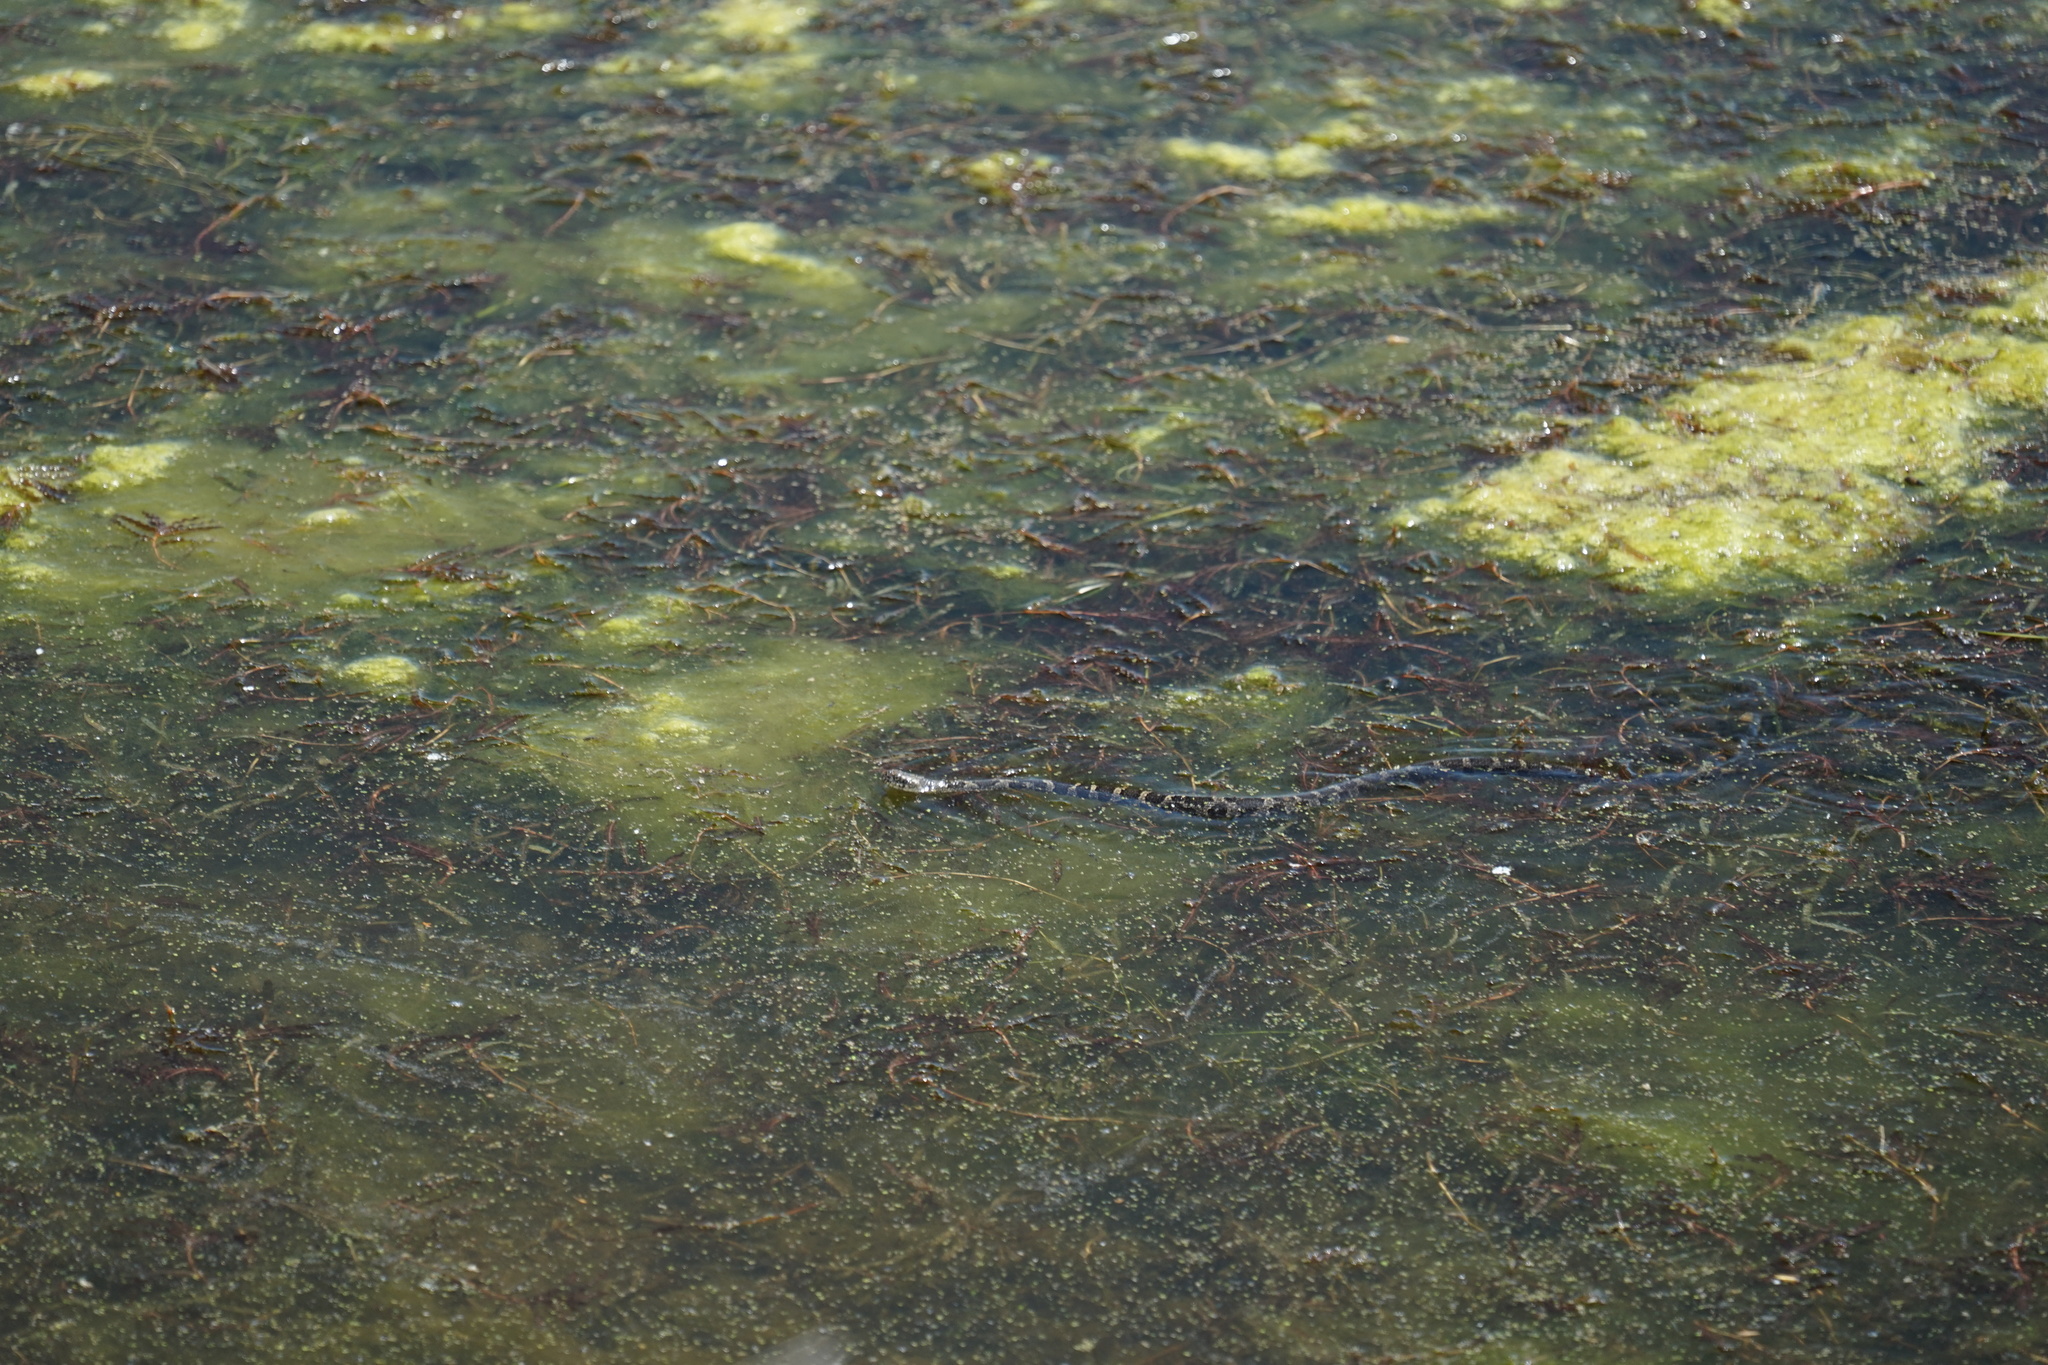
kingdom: Animalia
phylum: Chordata
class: Squamata
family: Colubridae
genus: Nerodia
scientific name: Nerodia sipedon
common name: Northern water snake
